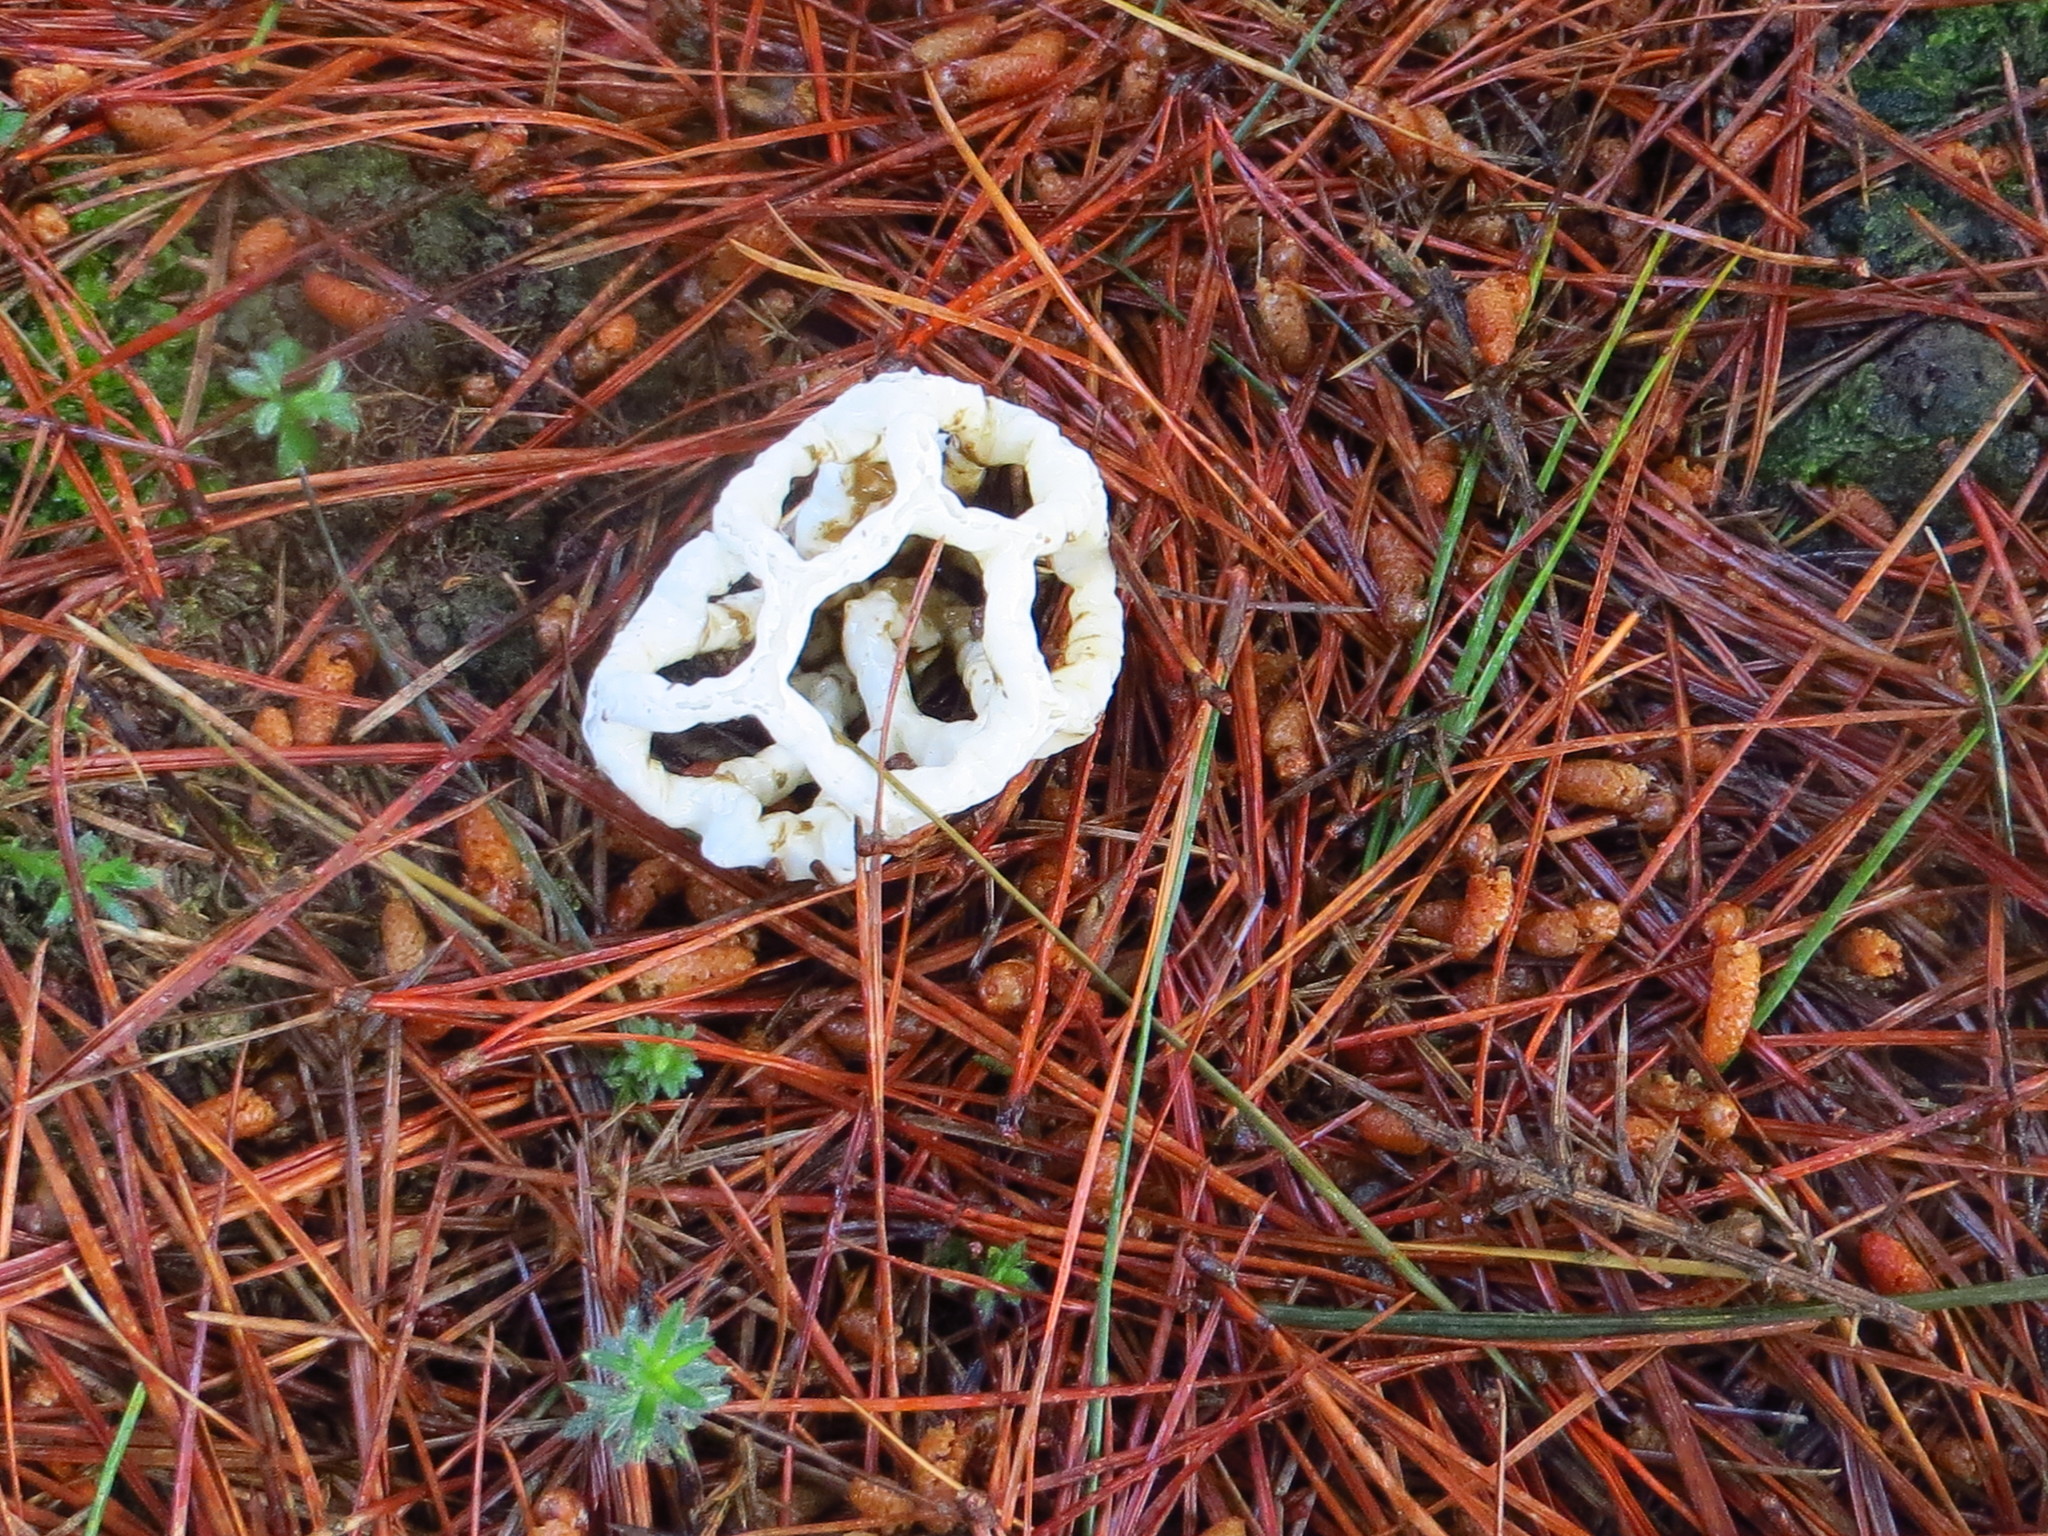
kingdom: Fungi
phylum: Basidiomycota
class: Agaricomycetes
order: Phallales
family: Phallaceae
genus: Ileodictyon
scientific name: Ileodictyon cibarium
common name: Basket fungus
